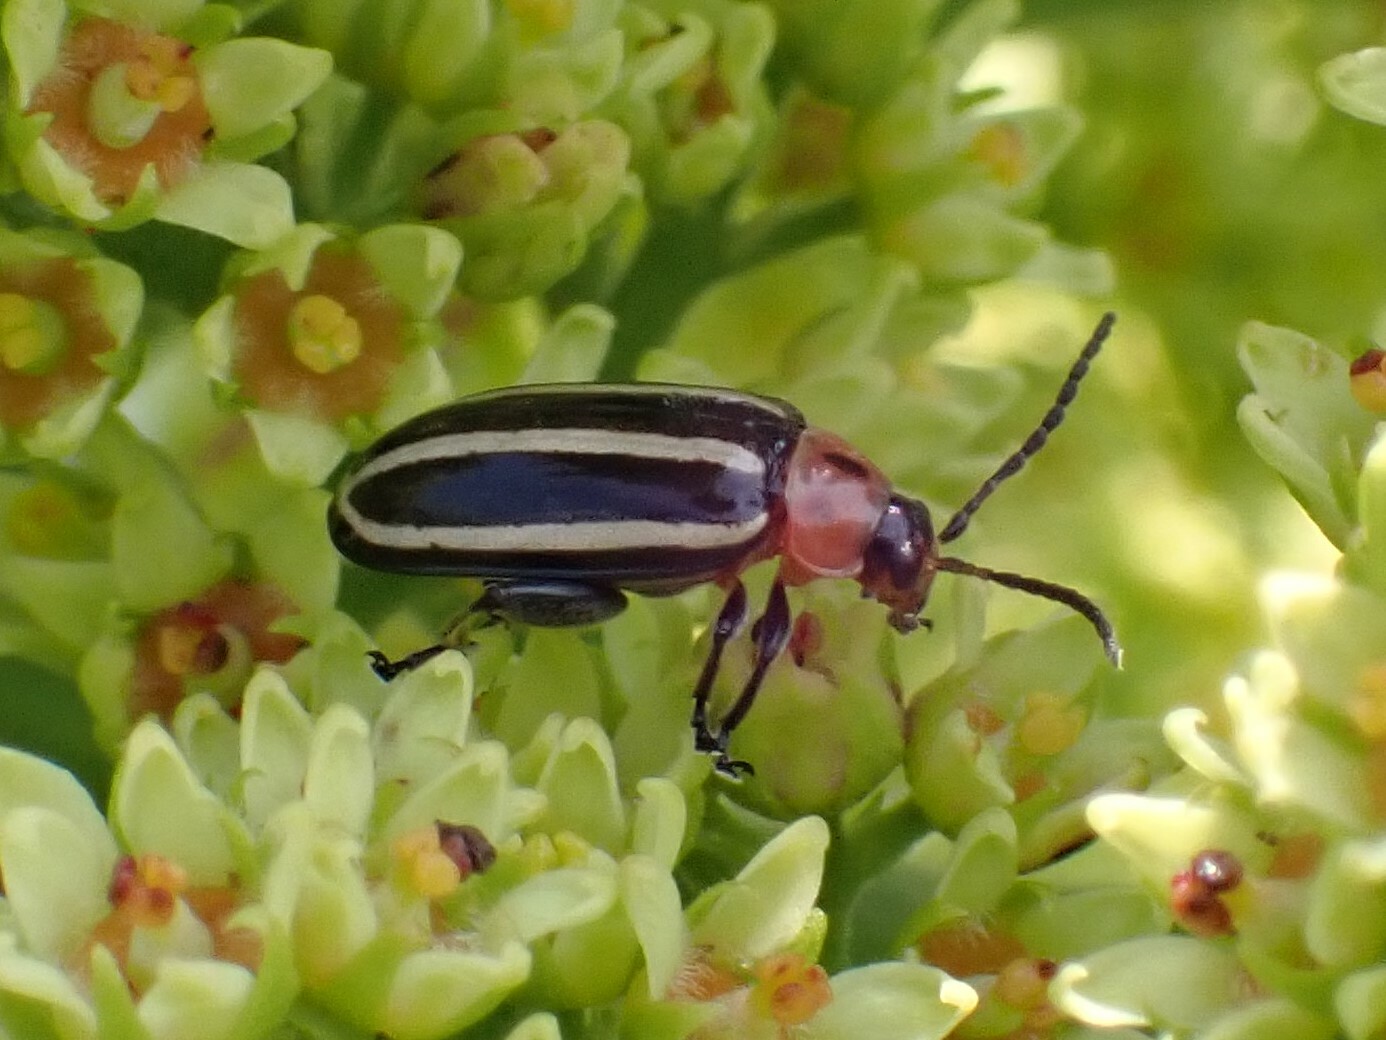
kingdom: Animalia
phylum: Arthropoda
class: Insecta
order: Coleoptera
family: Chrysomelidae
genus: Disonycha
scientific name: Disonycha glabrata
